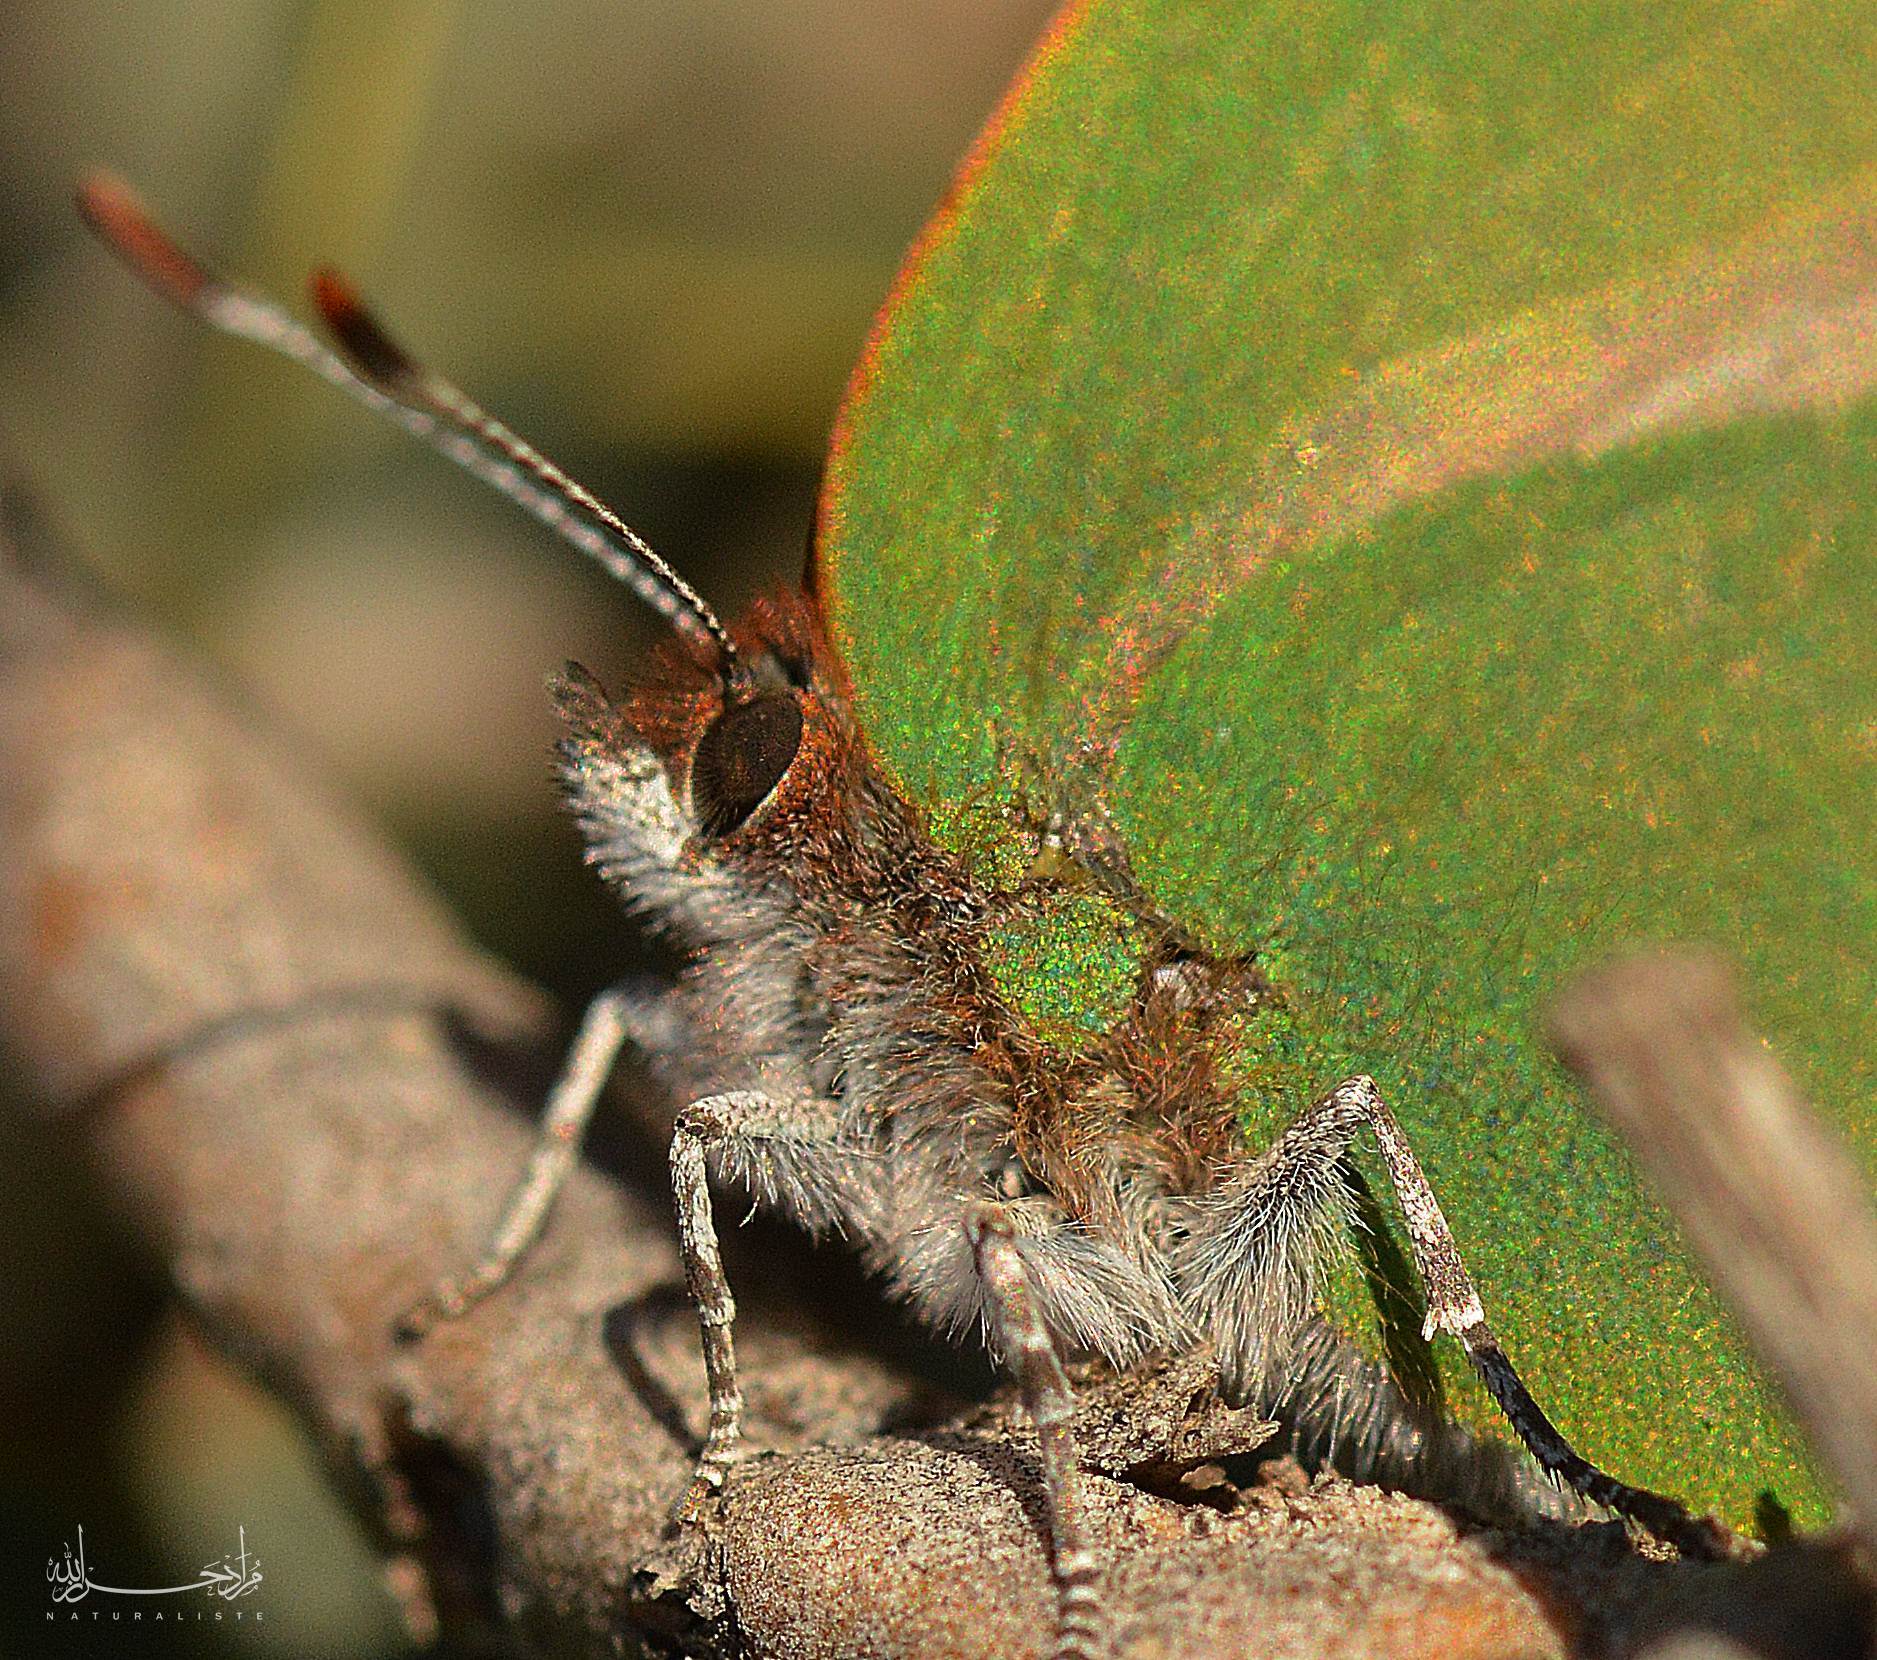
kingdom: Animalia
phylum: Arthropoda
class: Insecta
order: Lepidoptera
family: Lycaenidae
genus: Callophrys
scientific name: Callophrys avis
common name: Chapman's green hairstreak
